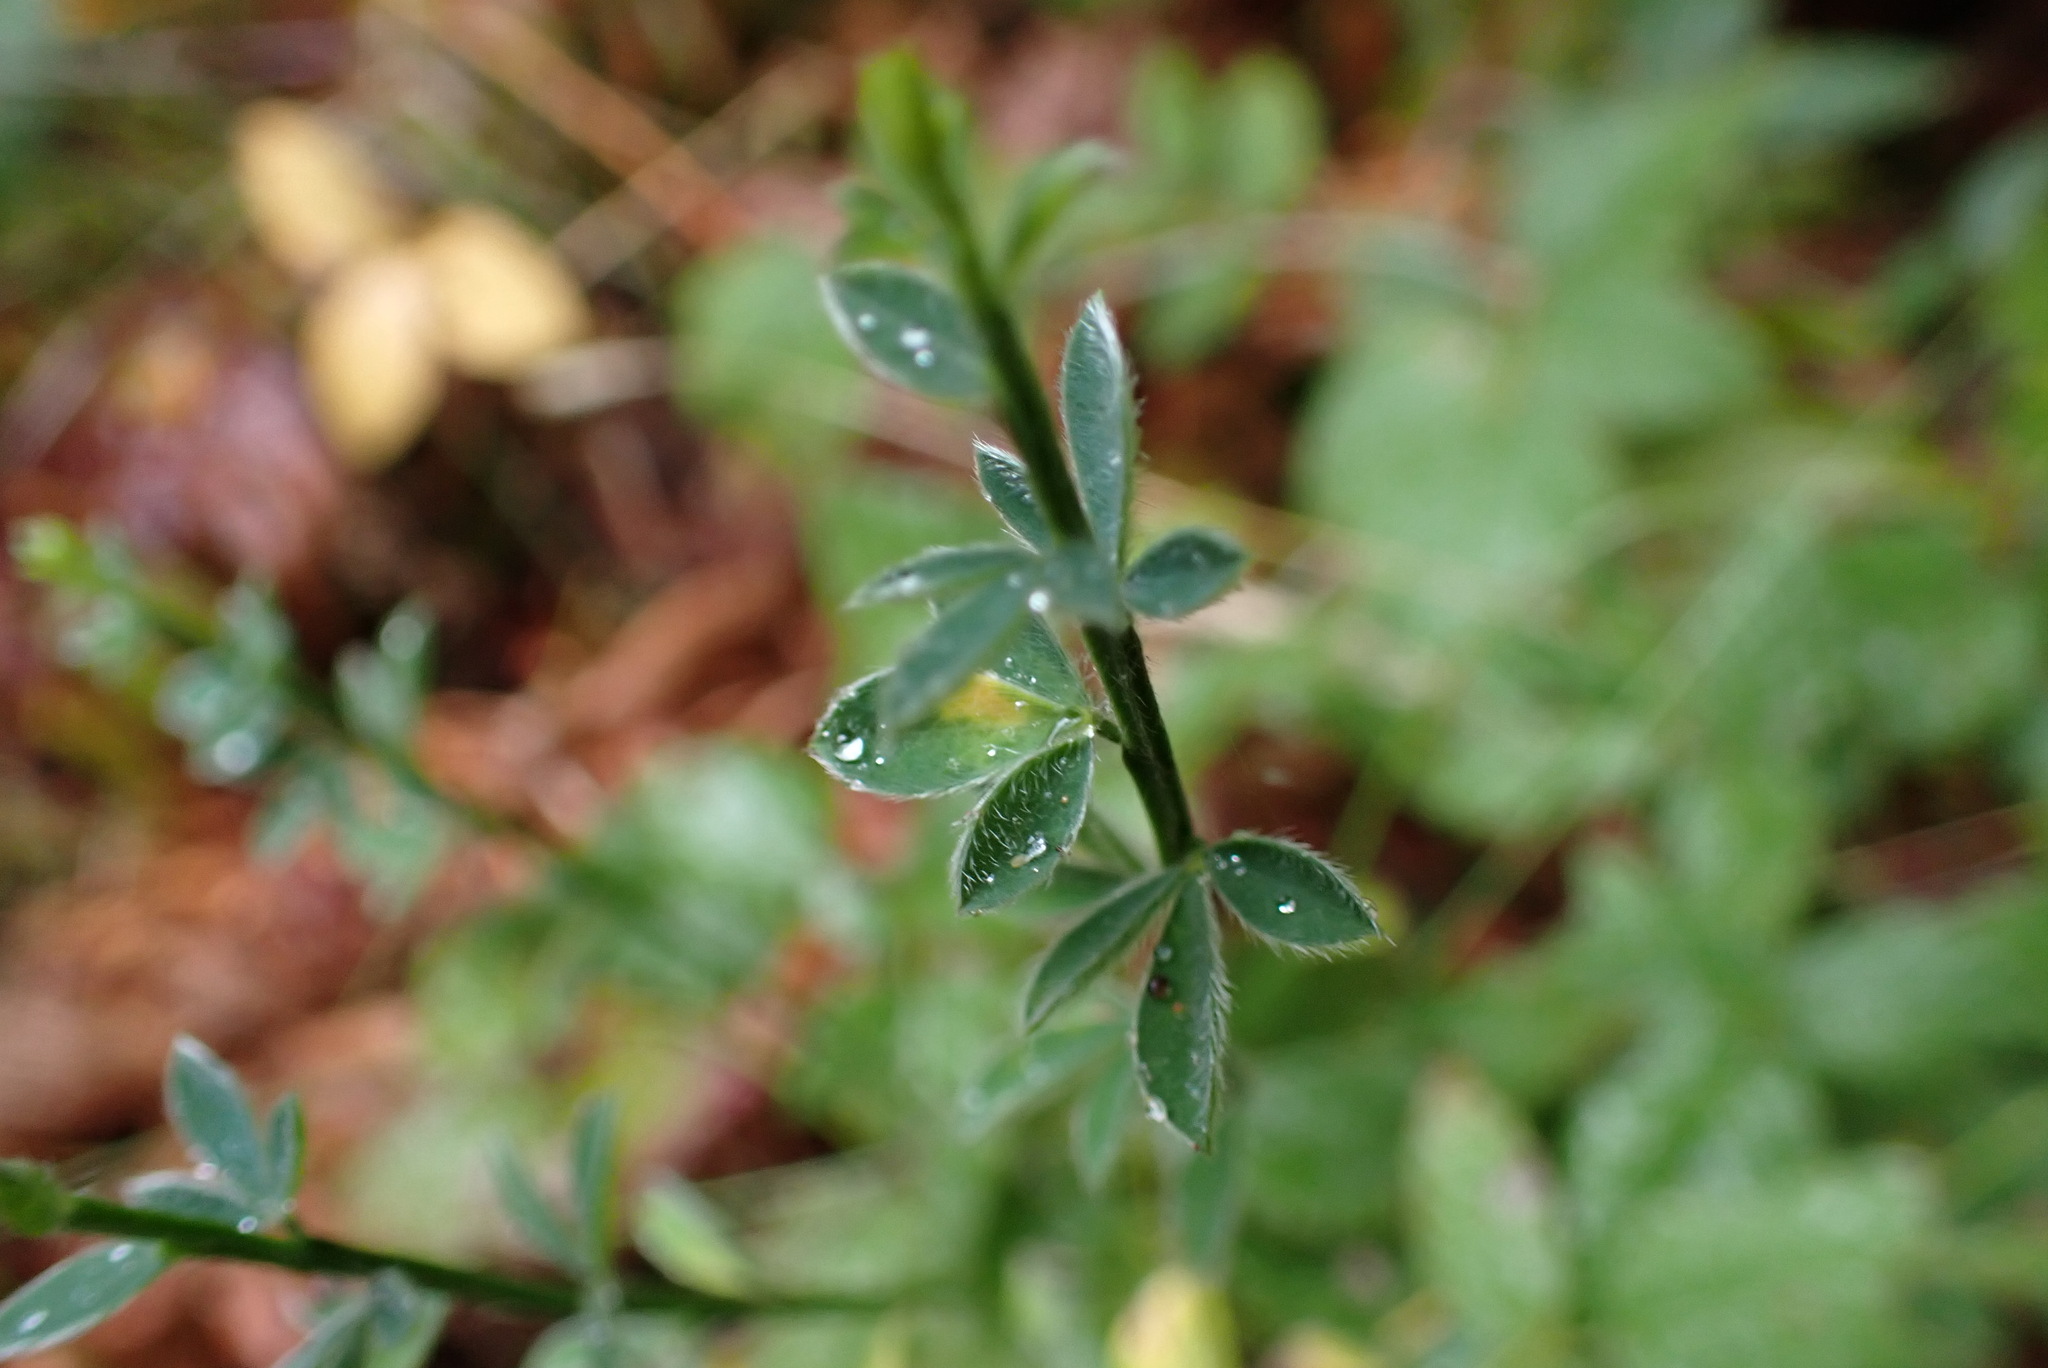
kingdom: Plantae
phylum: Tracheophyta
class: Magnoliopsida
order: Fabales
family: Fabaceae
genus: Cytisus
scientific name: Cytisus scoparius
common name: Scotch broom
